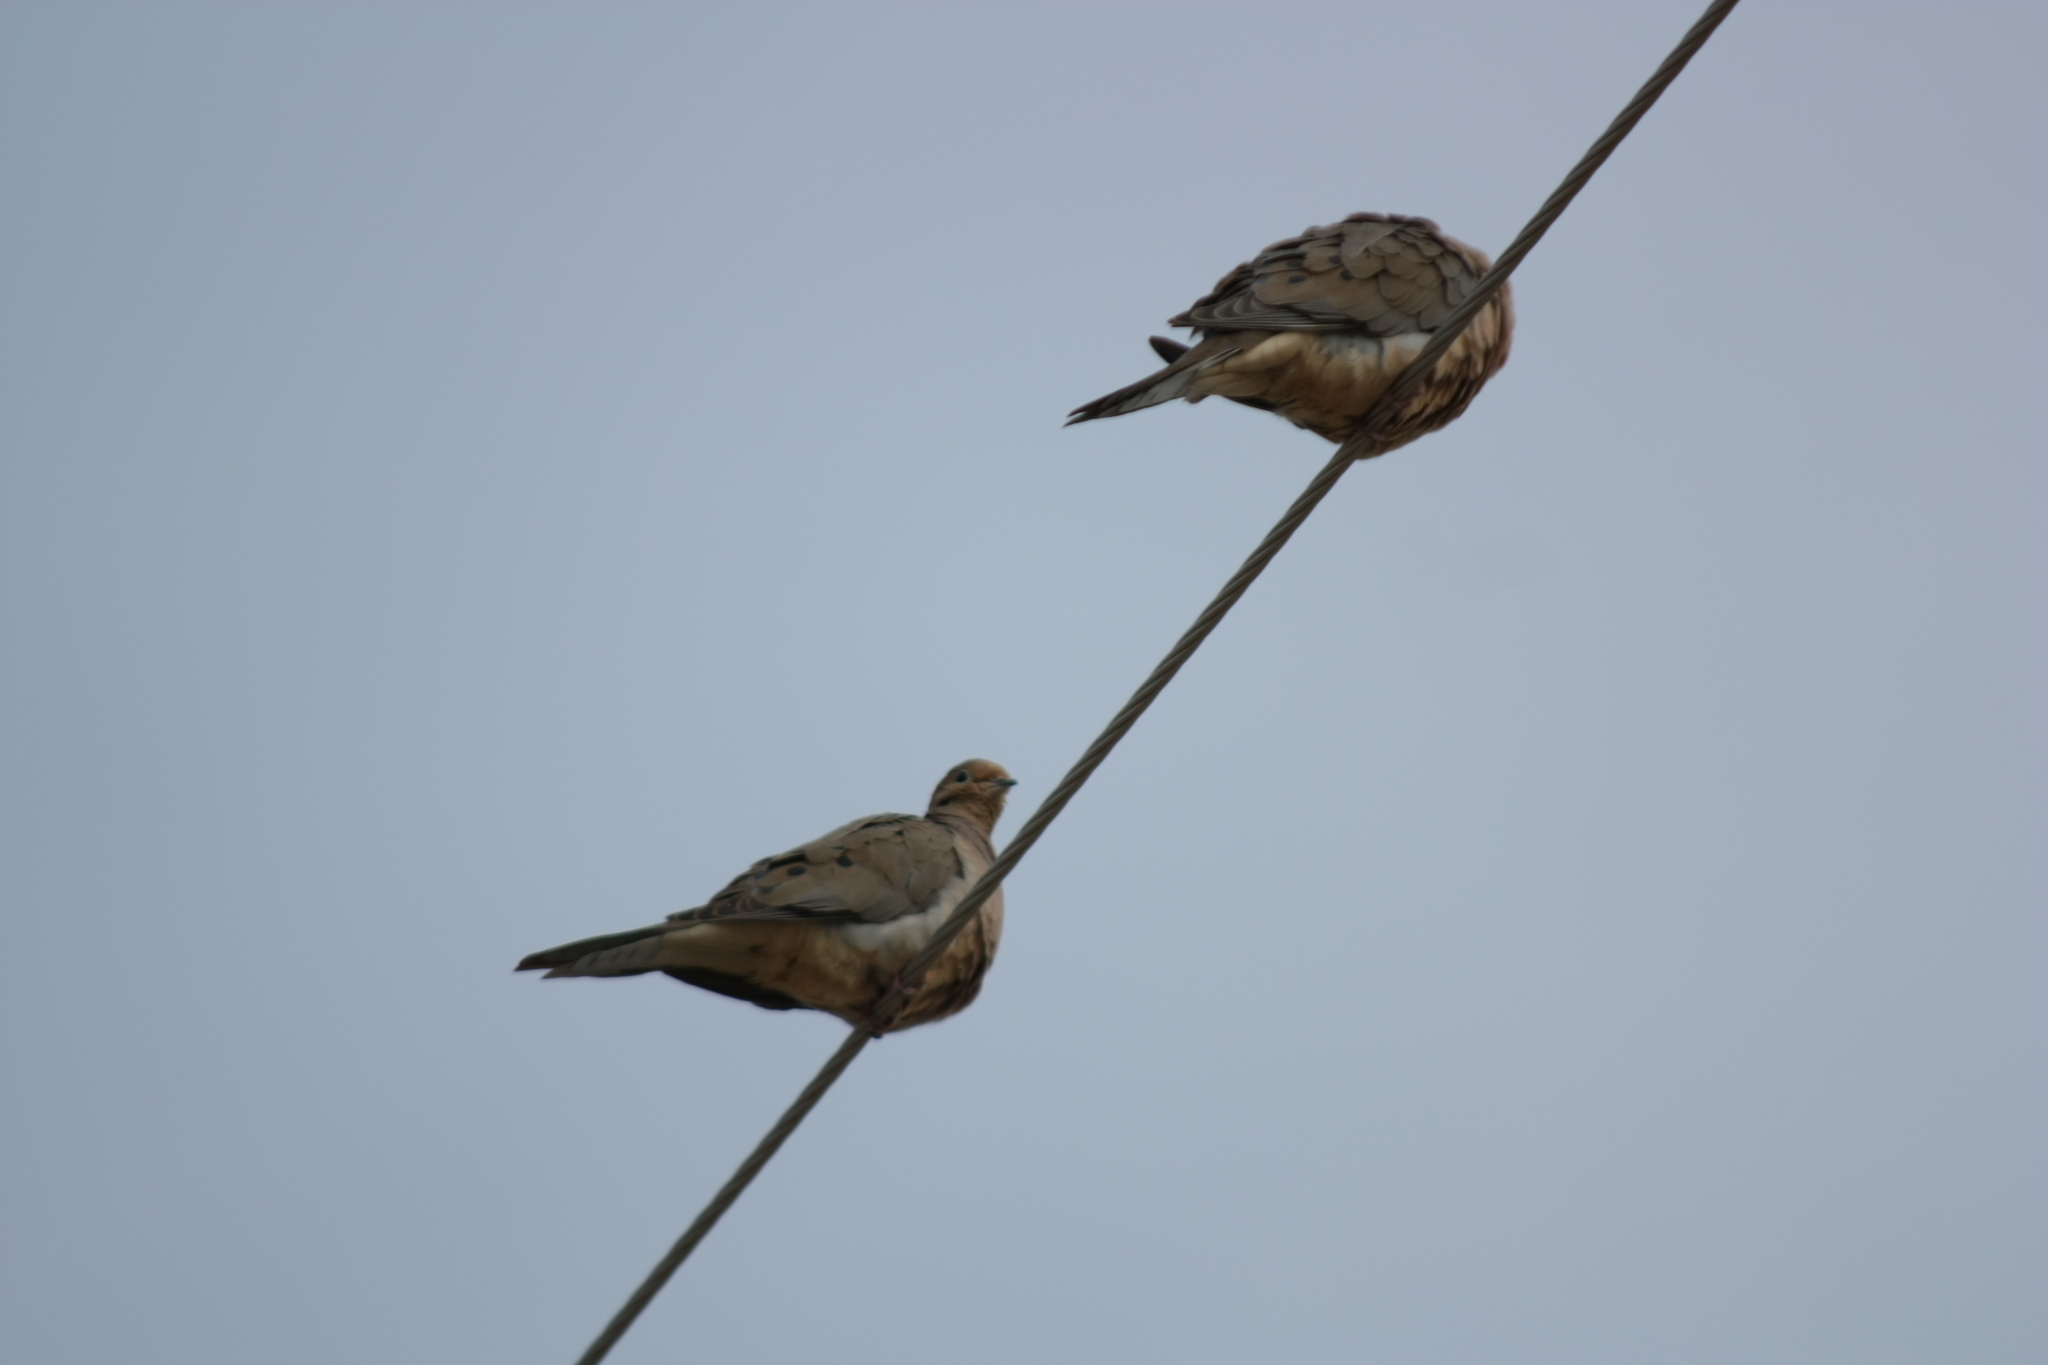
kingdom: Animalia
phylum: Chordata
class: Aves
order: Columbiformes
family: Columbidae
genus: Zenaida
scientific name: Zenaida macroura
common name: Mourning dove
